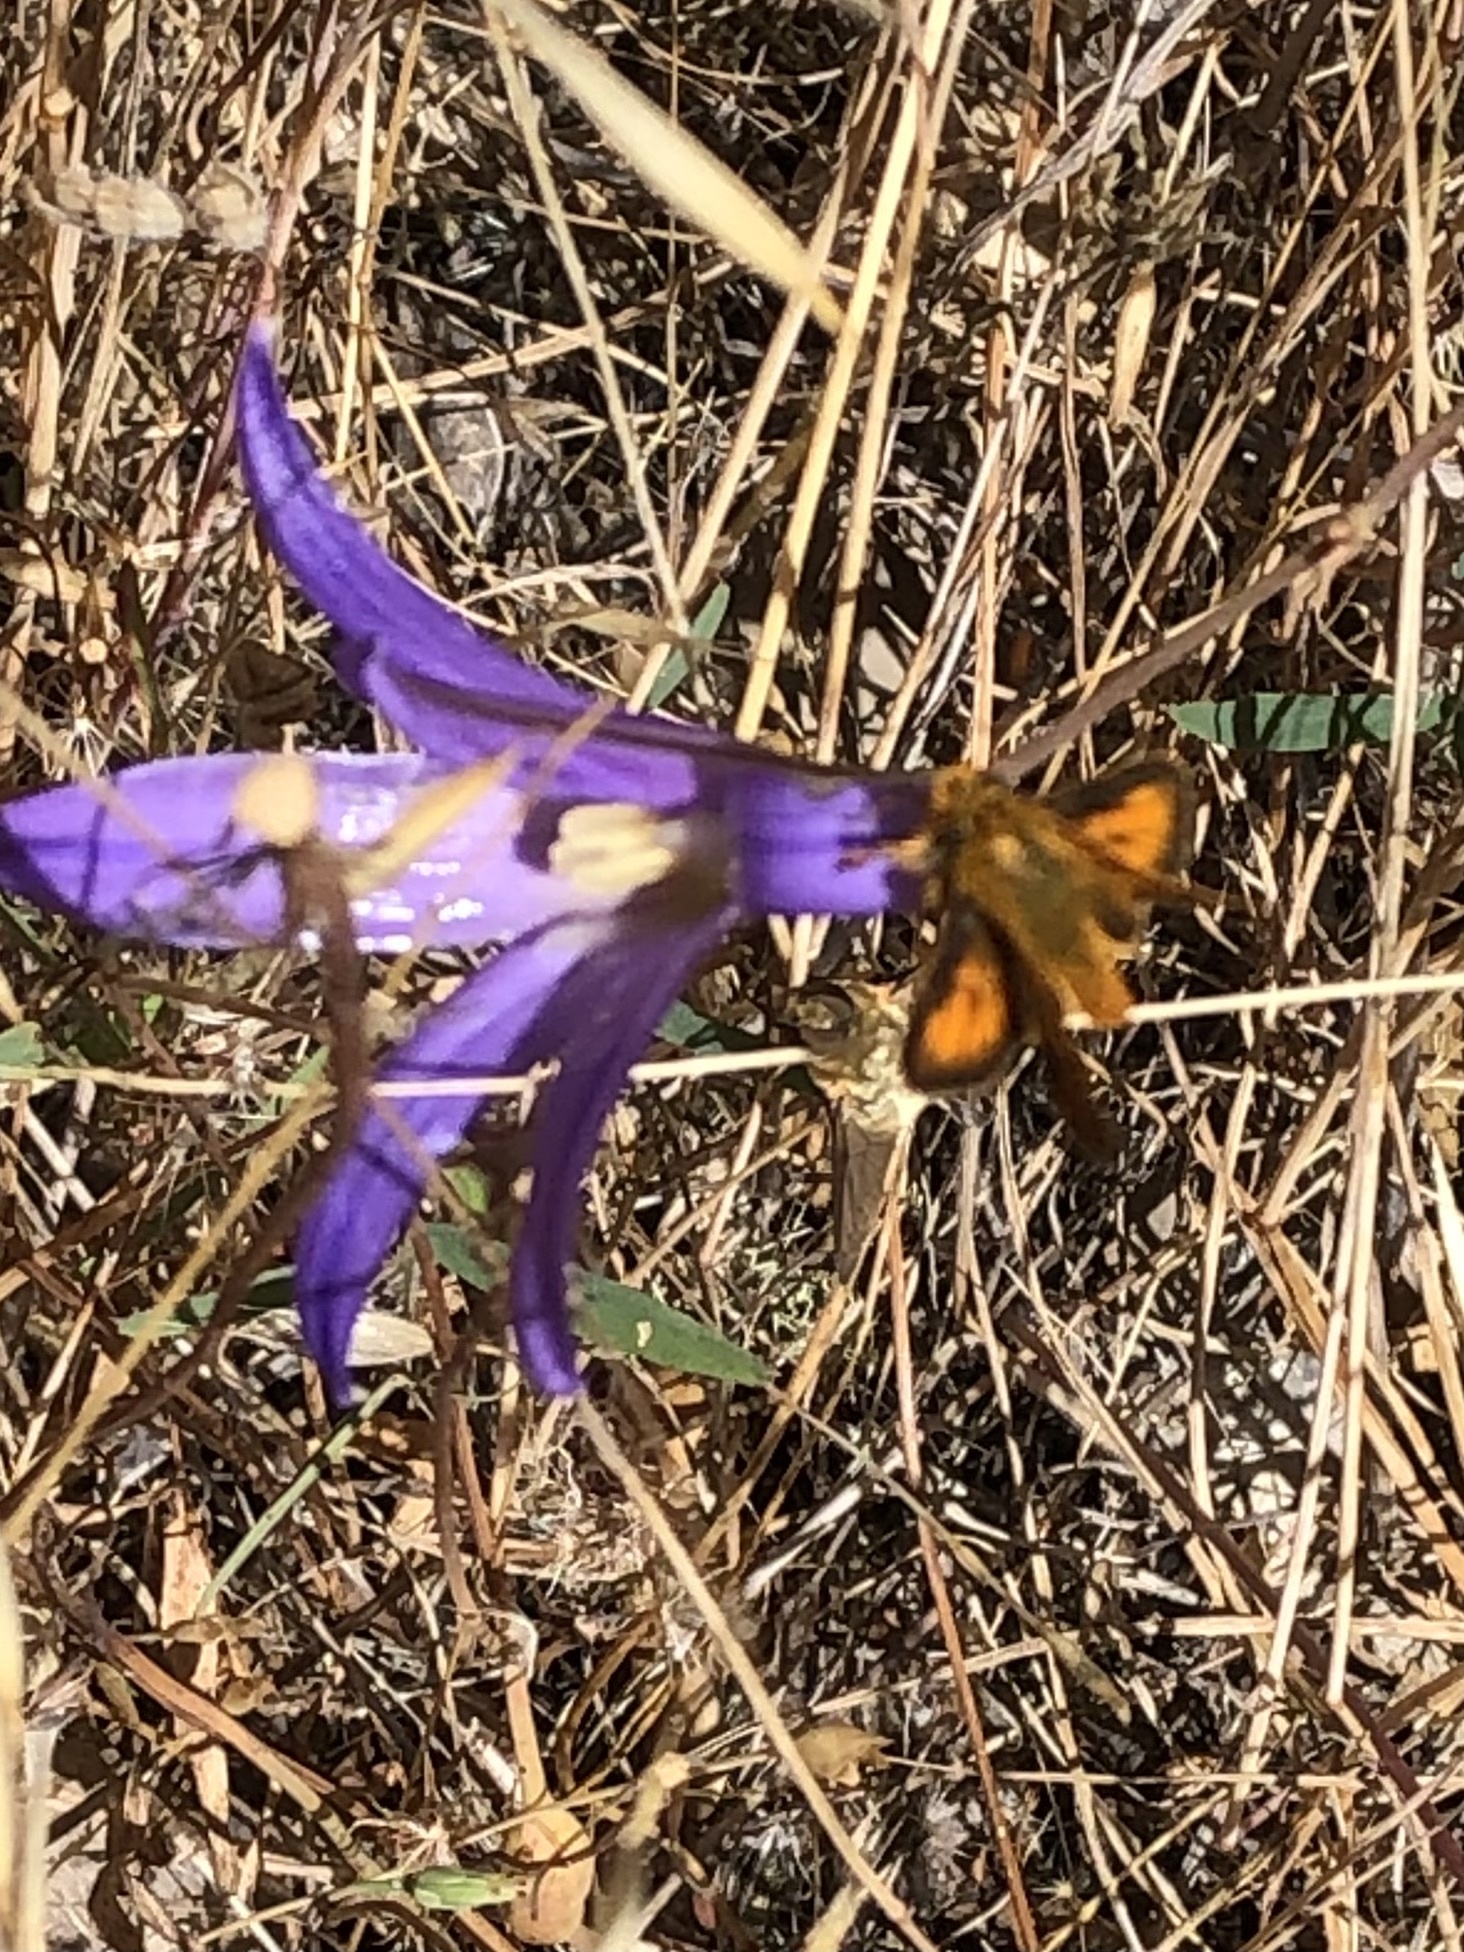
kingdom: Animalia
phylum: Arthropoda
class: Insecta
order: Lepidoptera
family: Hesperiidae
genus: Ochlodes
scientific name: Ochlodes agricola
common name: Rural skipper
